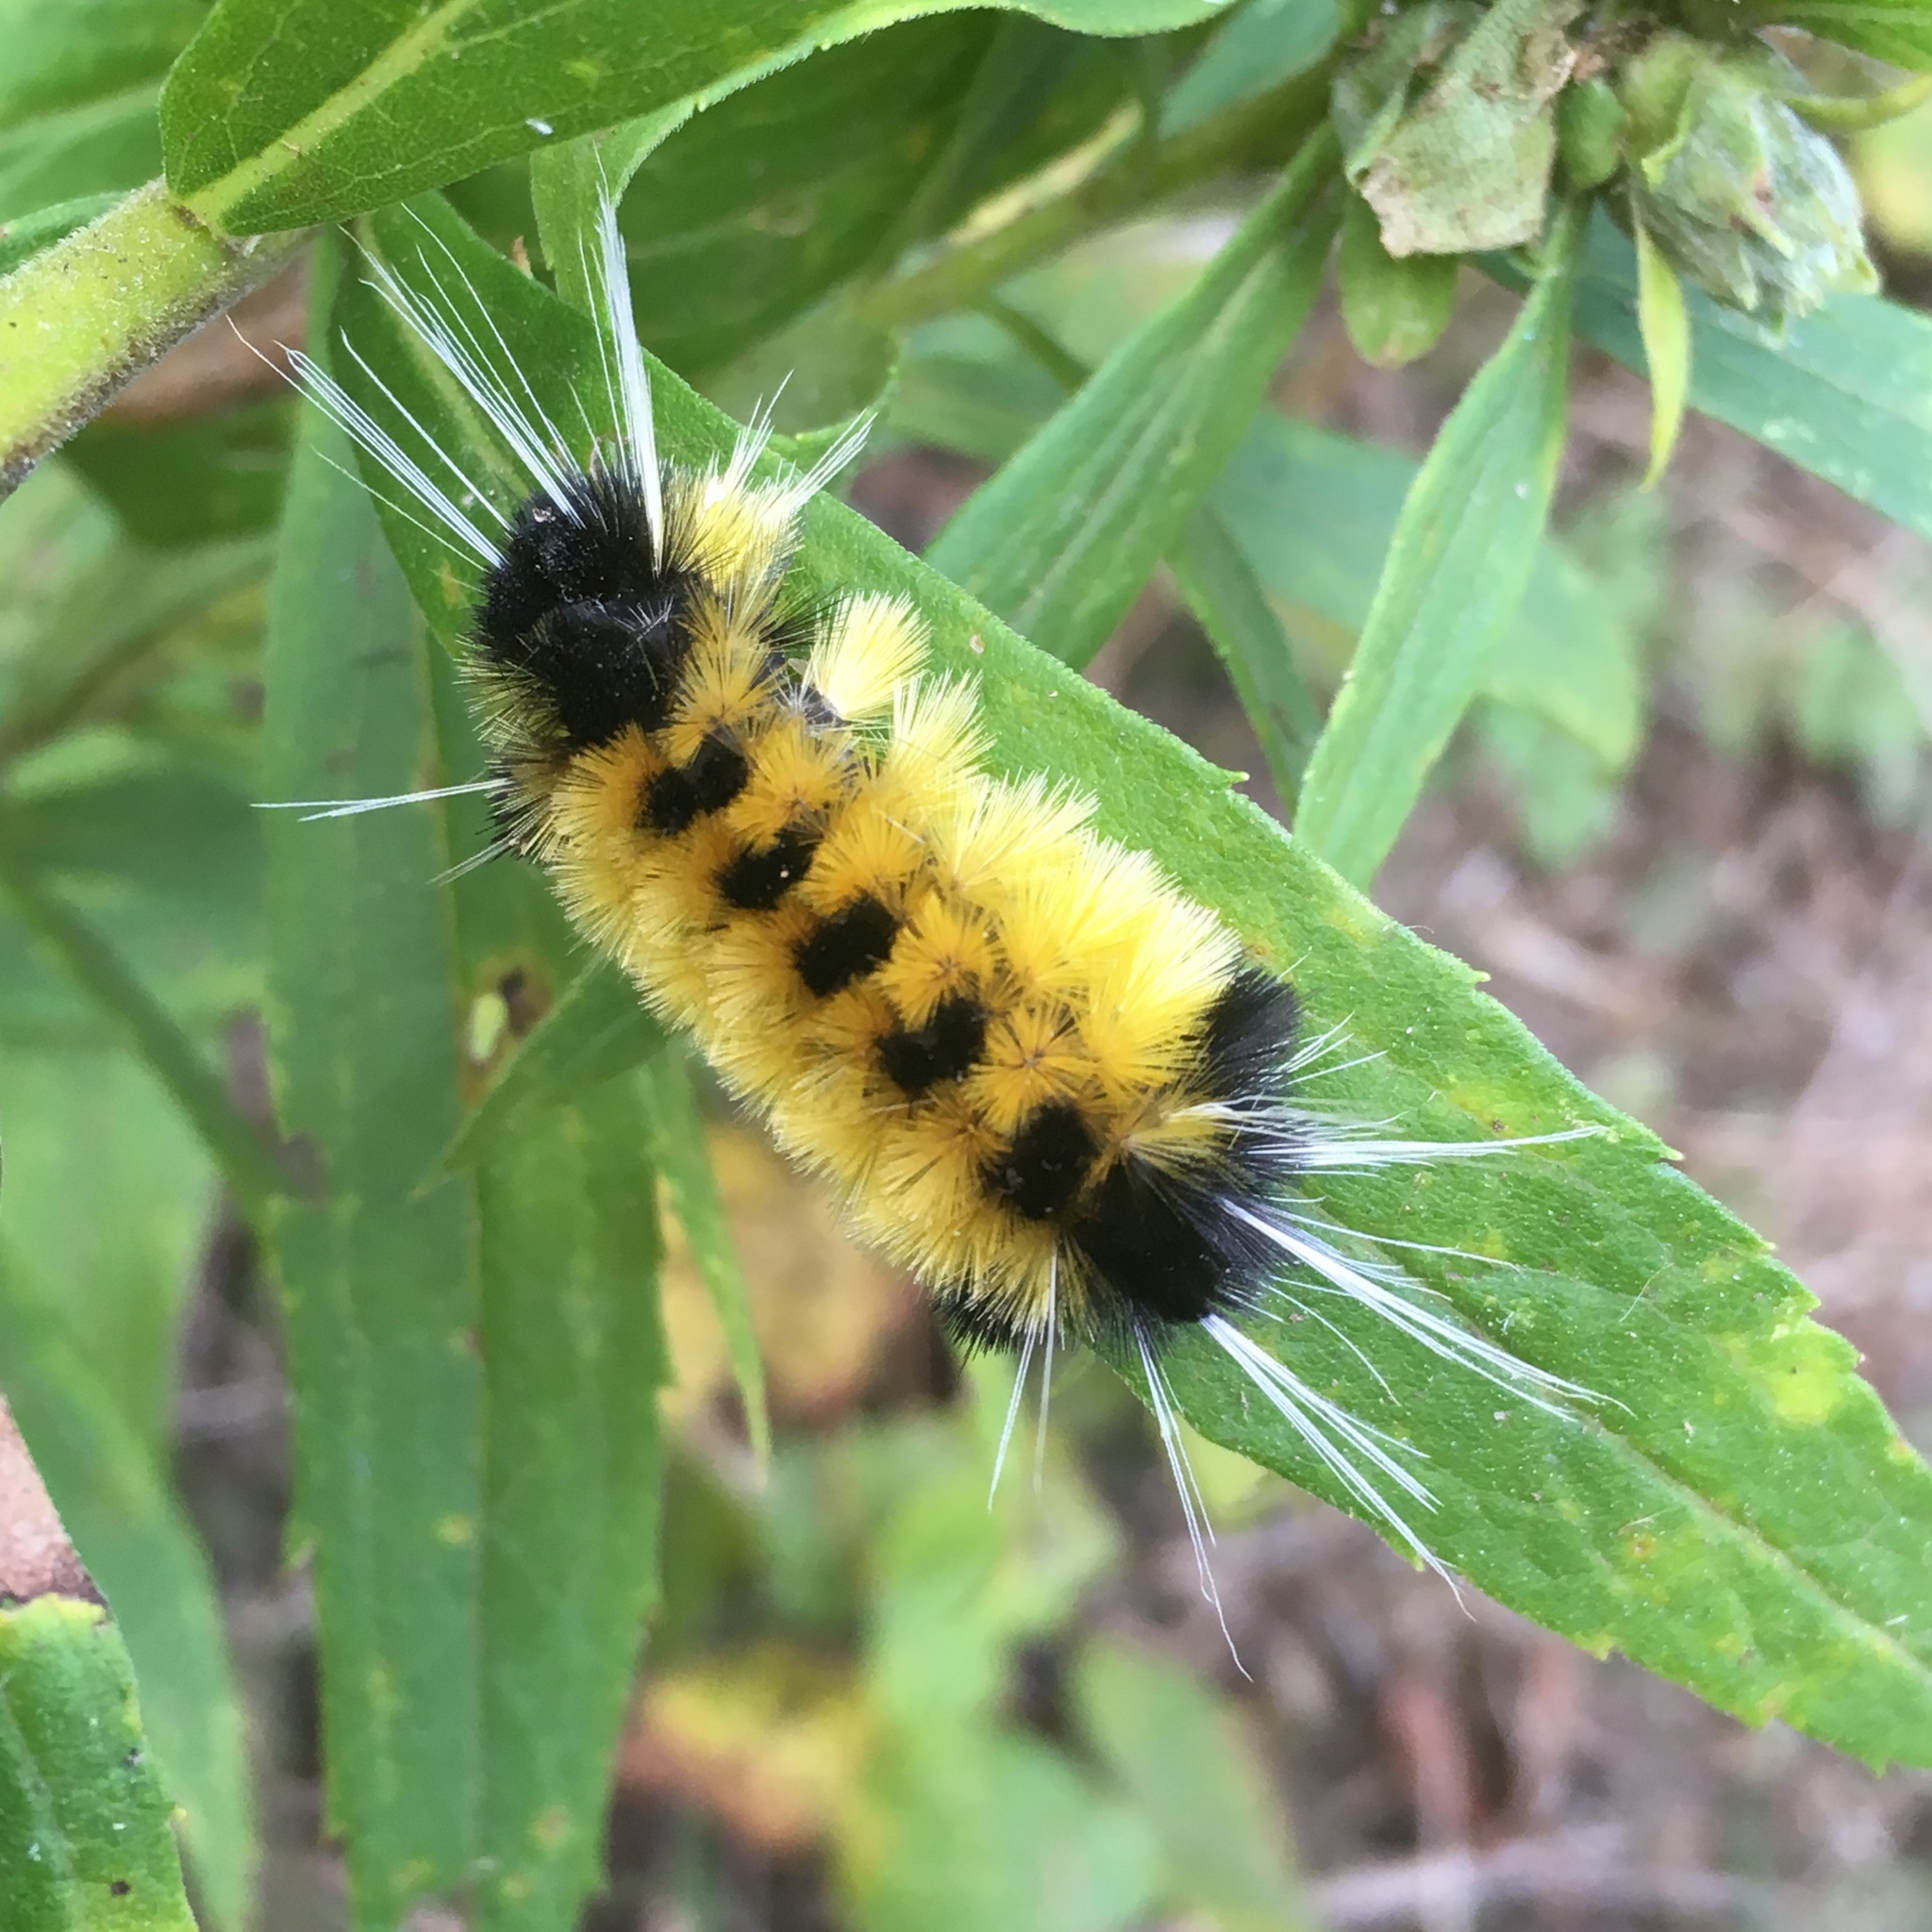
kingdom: Animalia
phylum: Arthropoda
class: Insecta
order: Lepidoptera
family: Erebidae
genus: Lophocampa
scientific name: Lophocampa maculata
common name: Spotted tussock moth
